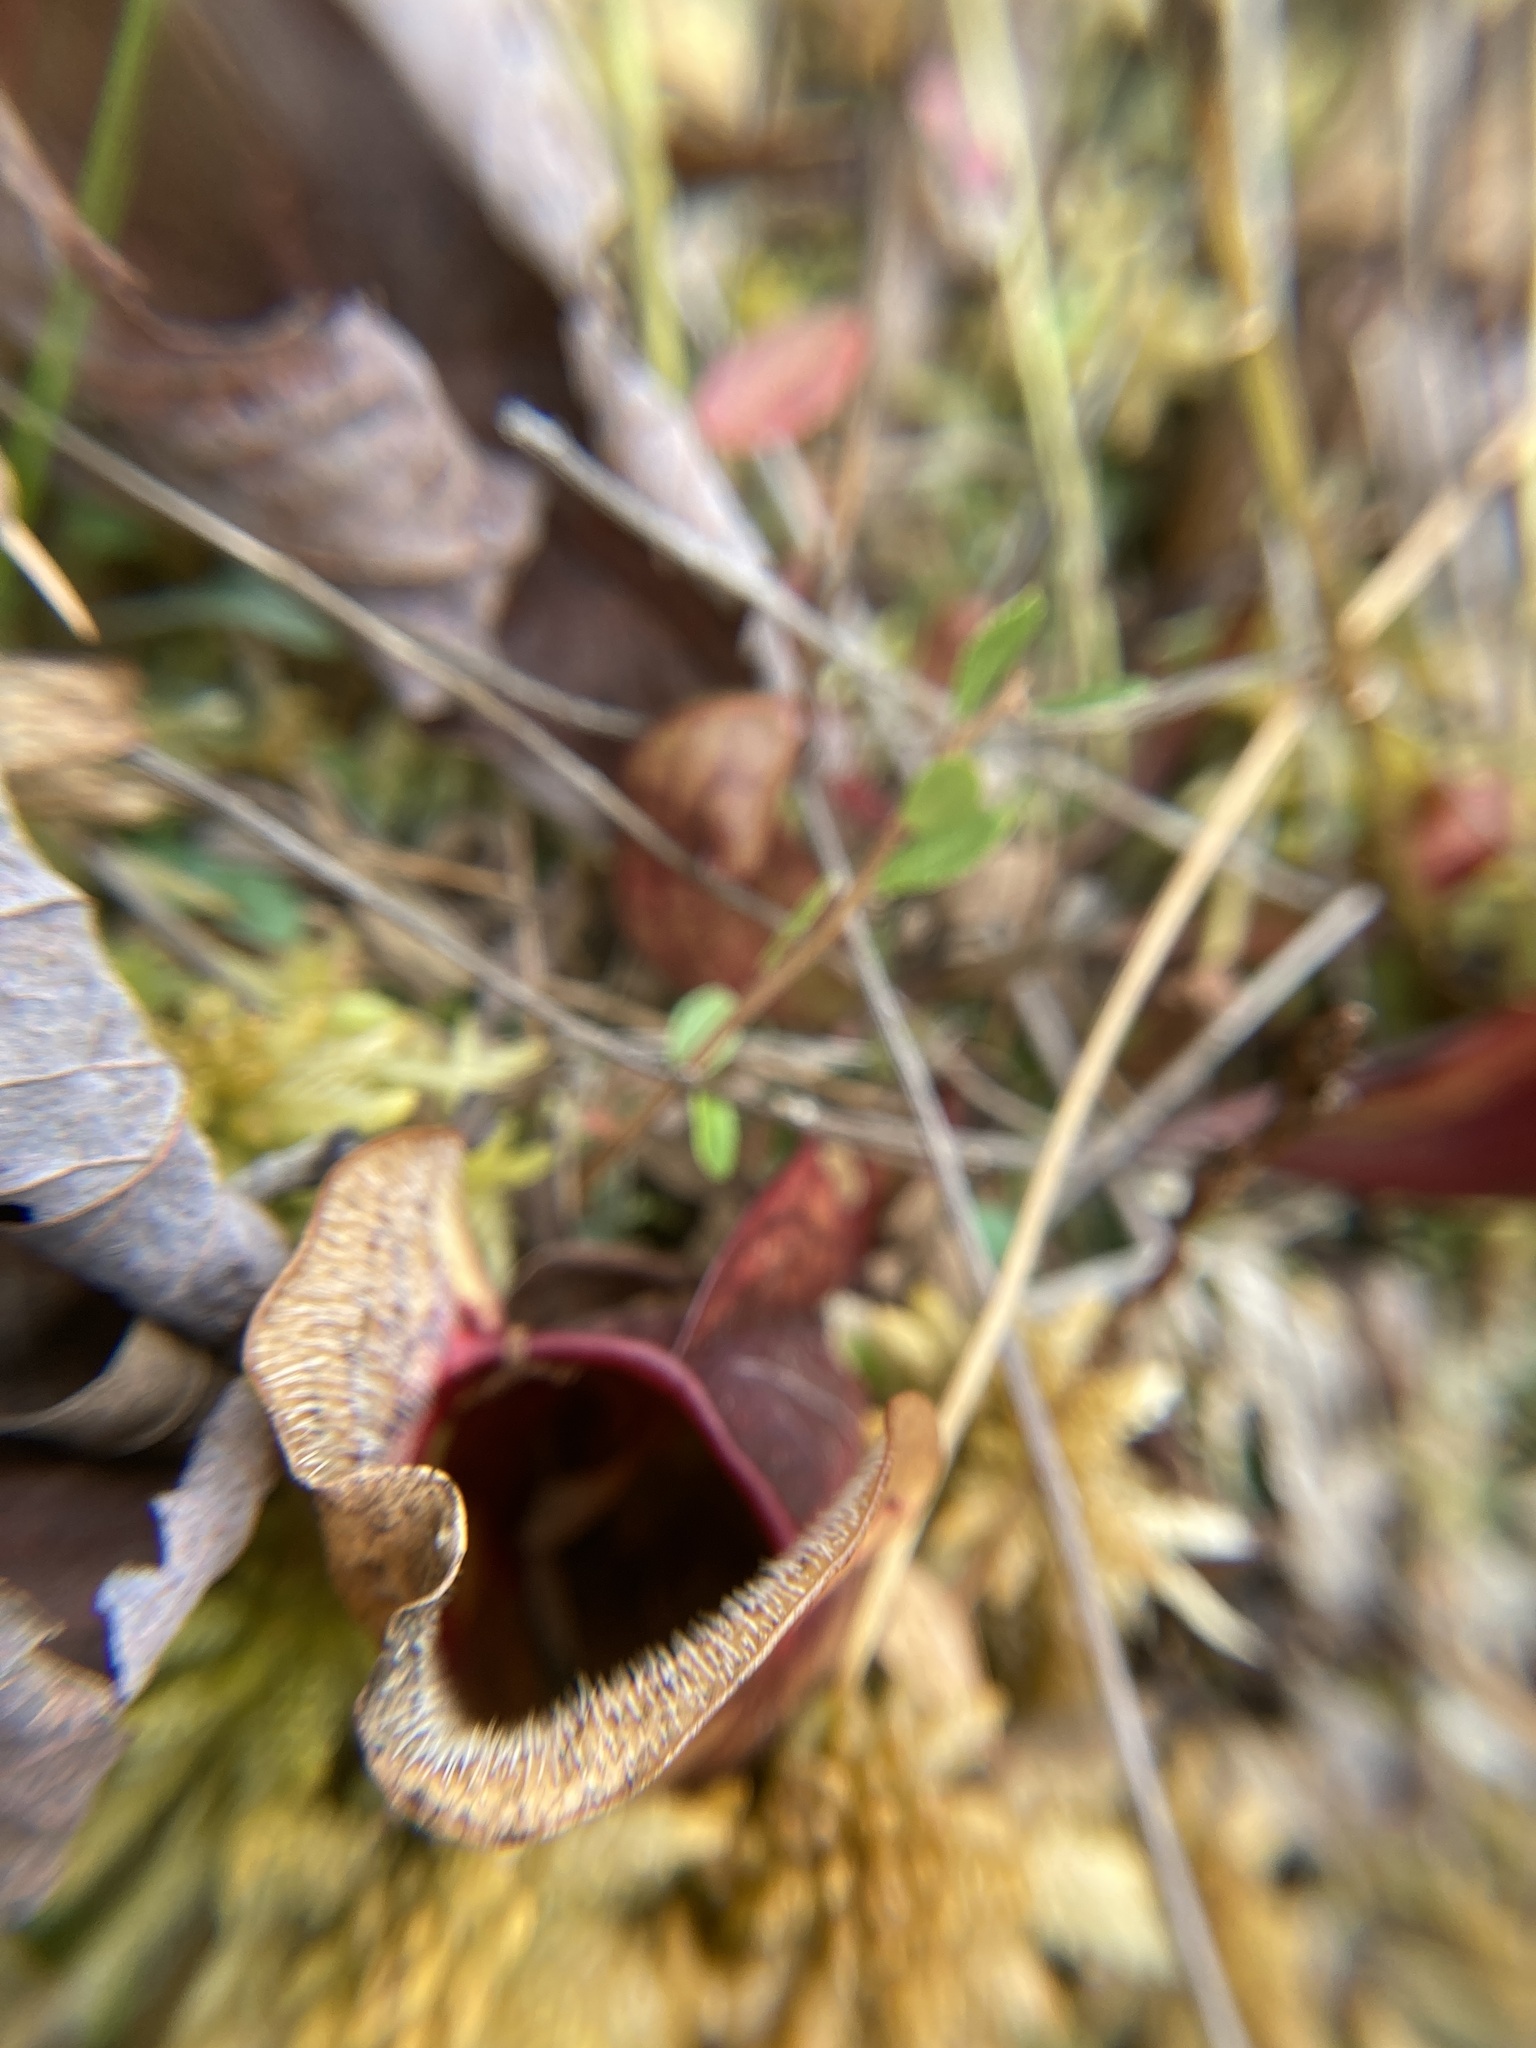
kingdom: Plantae
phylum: Tracheophyta
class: Magnoliopsida
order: Ericales
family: Sarraceniaceae
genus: Sarracenia
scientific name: Sarracenia purpurea
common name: Pitcherplant
